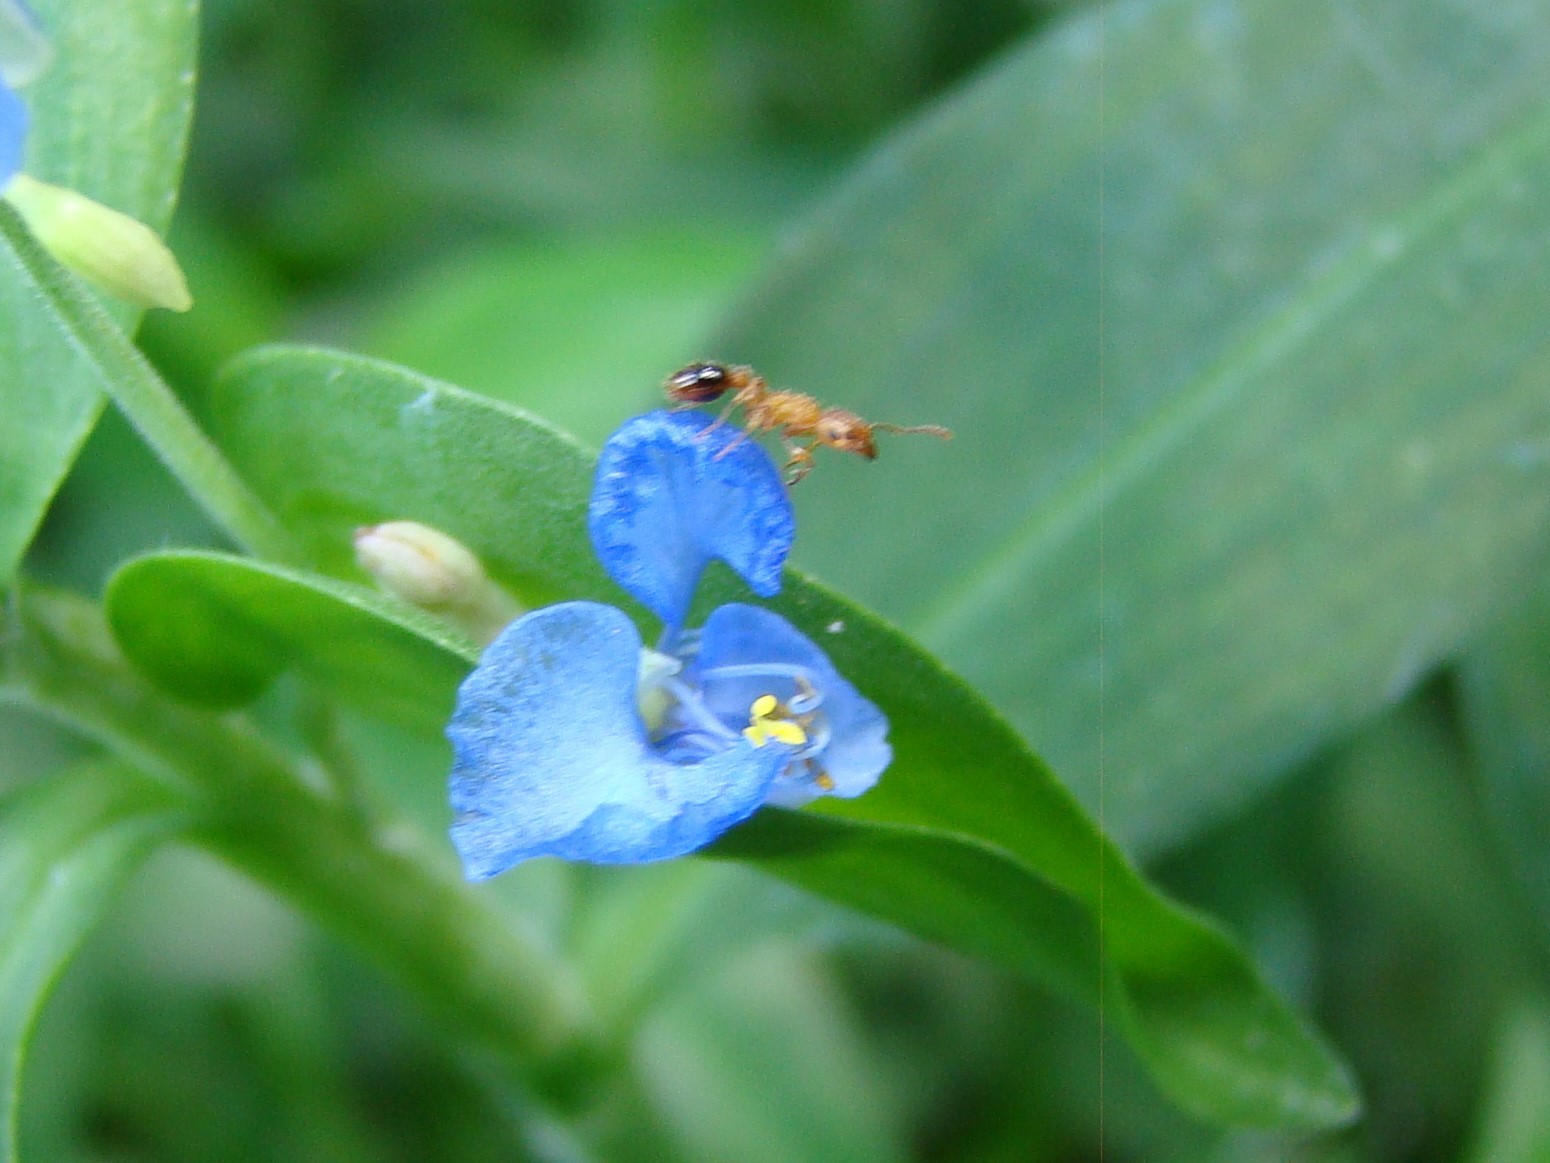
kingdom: Animalia
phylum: Arthropoda
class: Insecta
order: Hymenoptera
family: Formicidae
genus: Tetramorium
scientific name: Tetramorium bicarinatum
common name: Guinea ant
